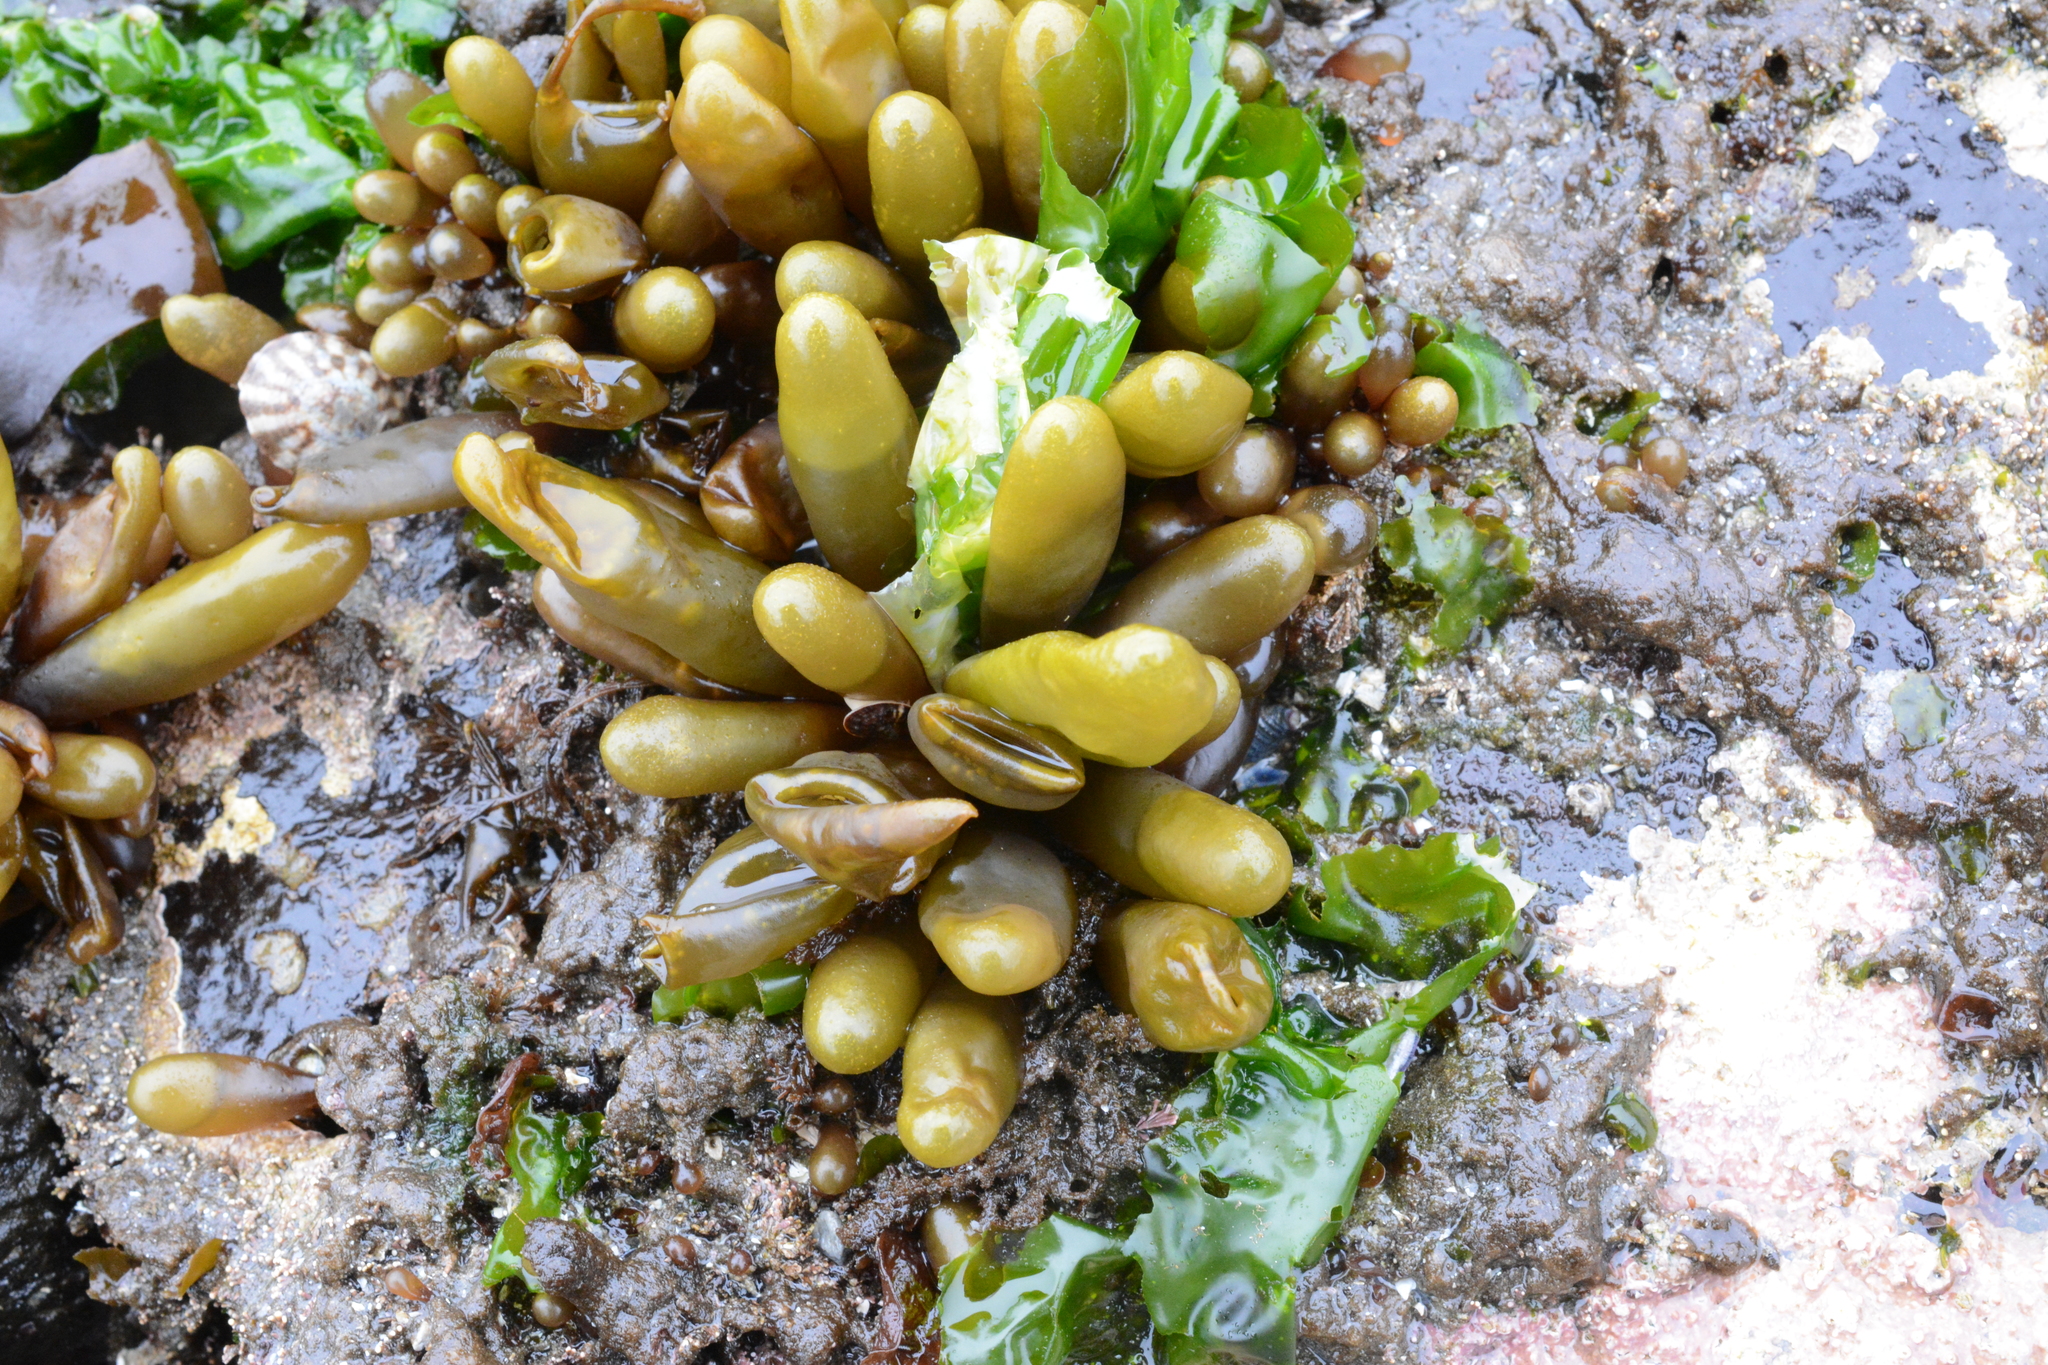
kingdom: Plantae
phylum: Rhodophyta
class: Florideophyceae
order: Palmariales
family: Palmariaceae
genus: Halosaccion
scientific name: Halosaccion glandiforme
